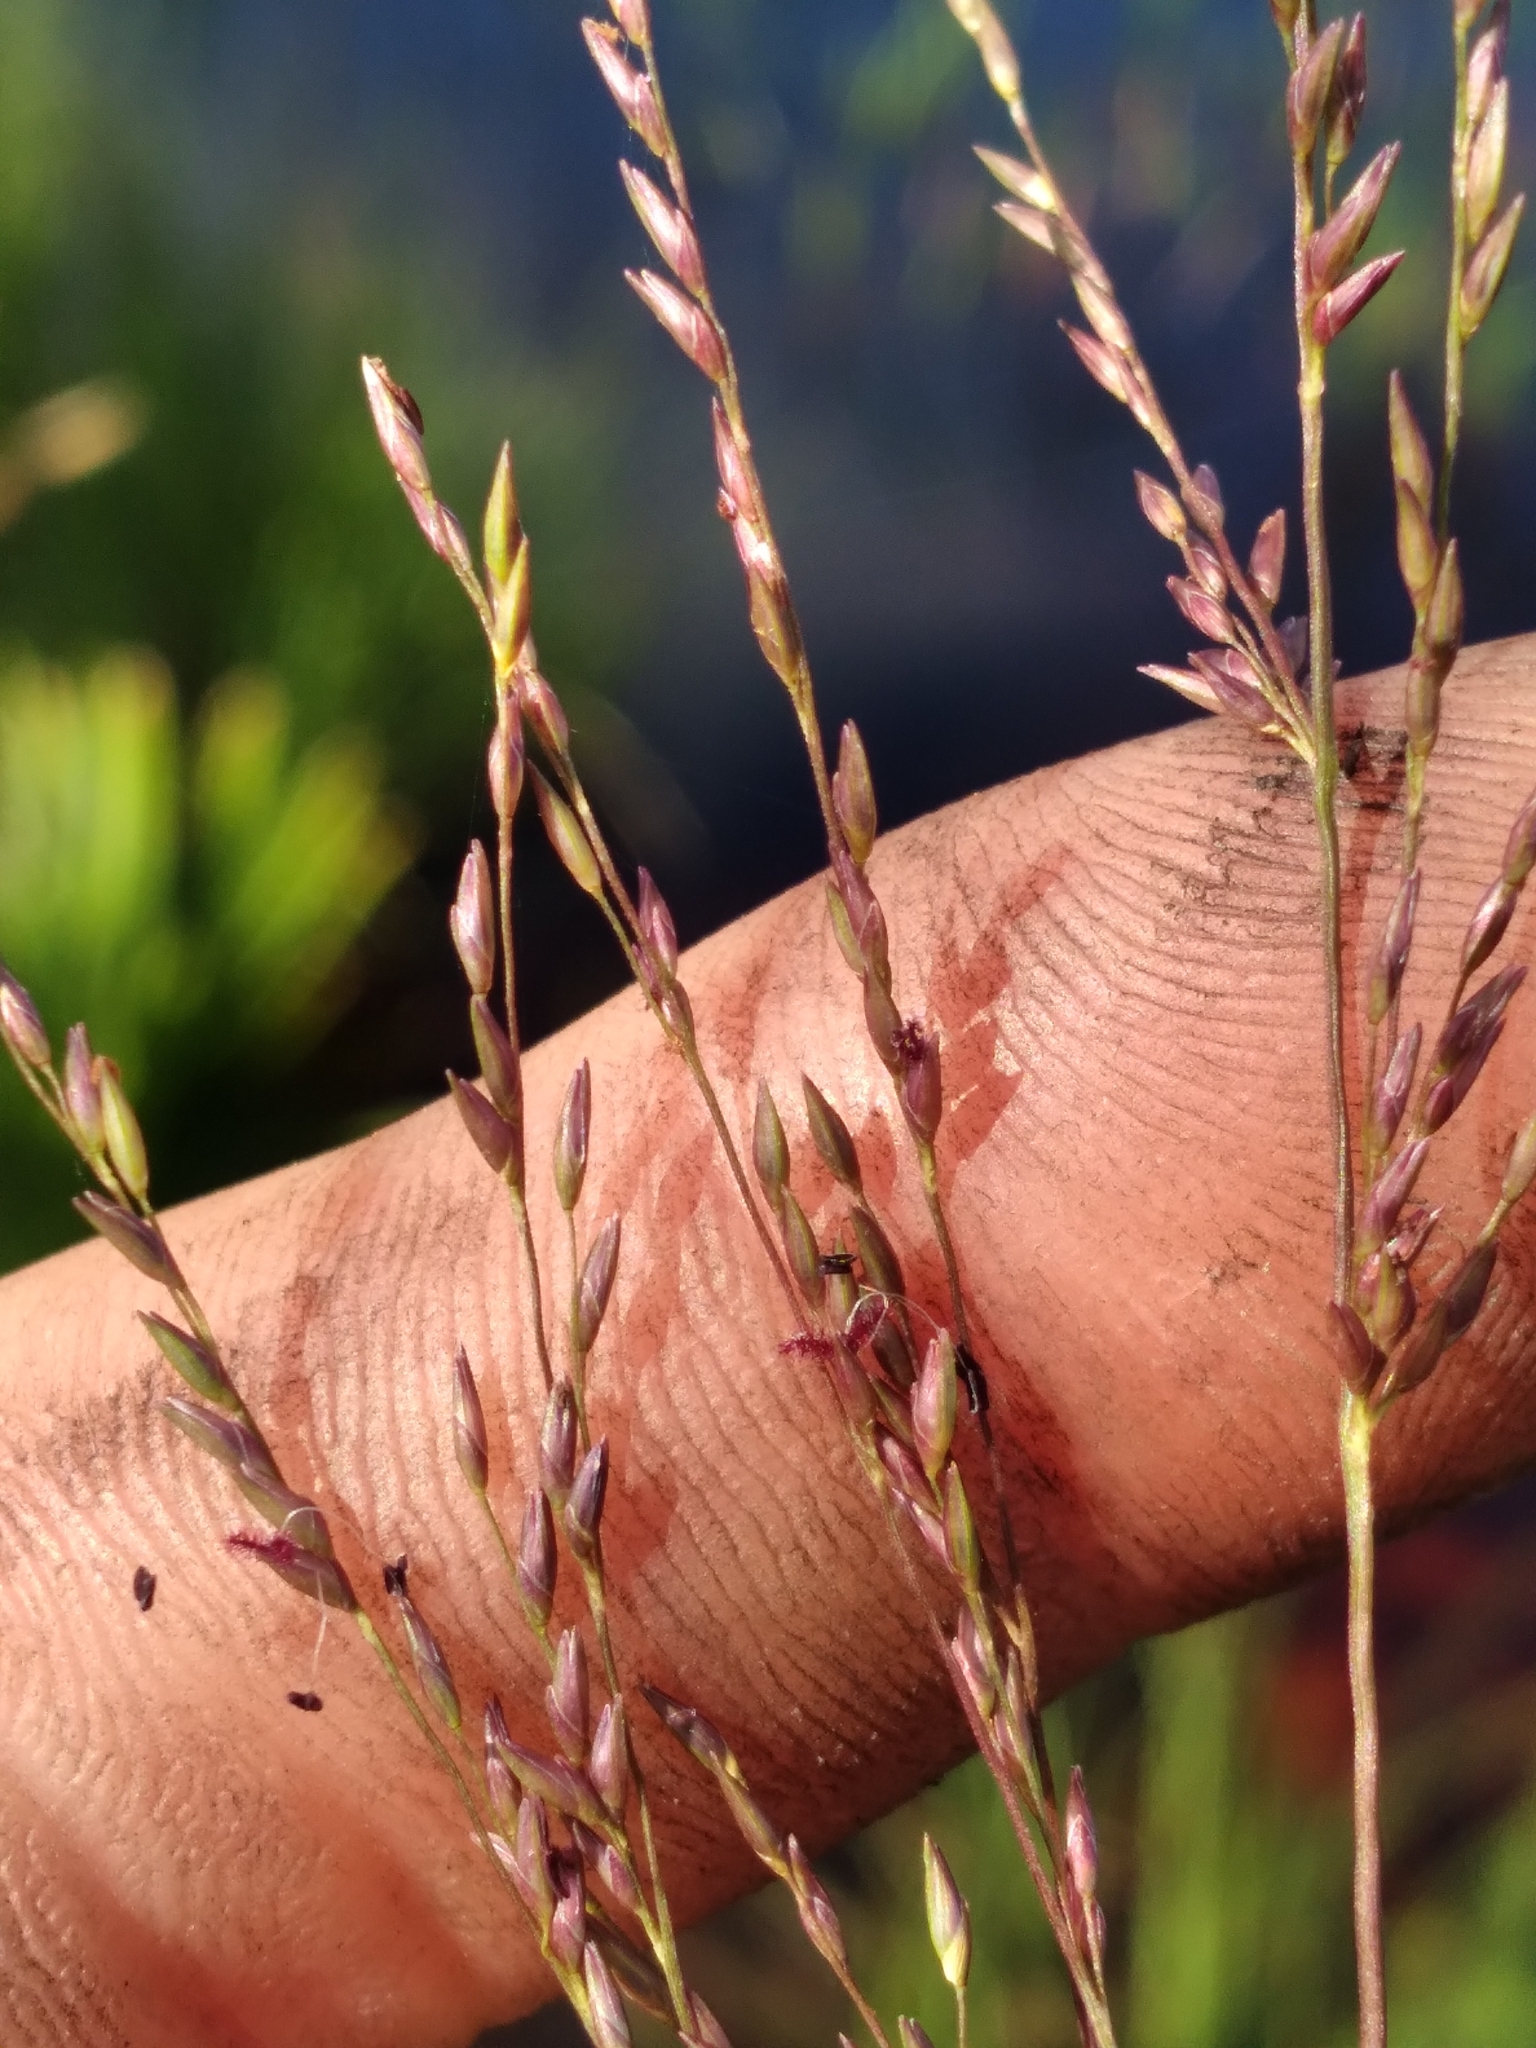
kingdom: Plantae
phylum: Tracheophyta
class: Liliopsida
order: Poales
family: Poaceae
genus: Coleataenia
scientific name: Coleataenia abscissa
